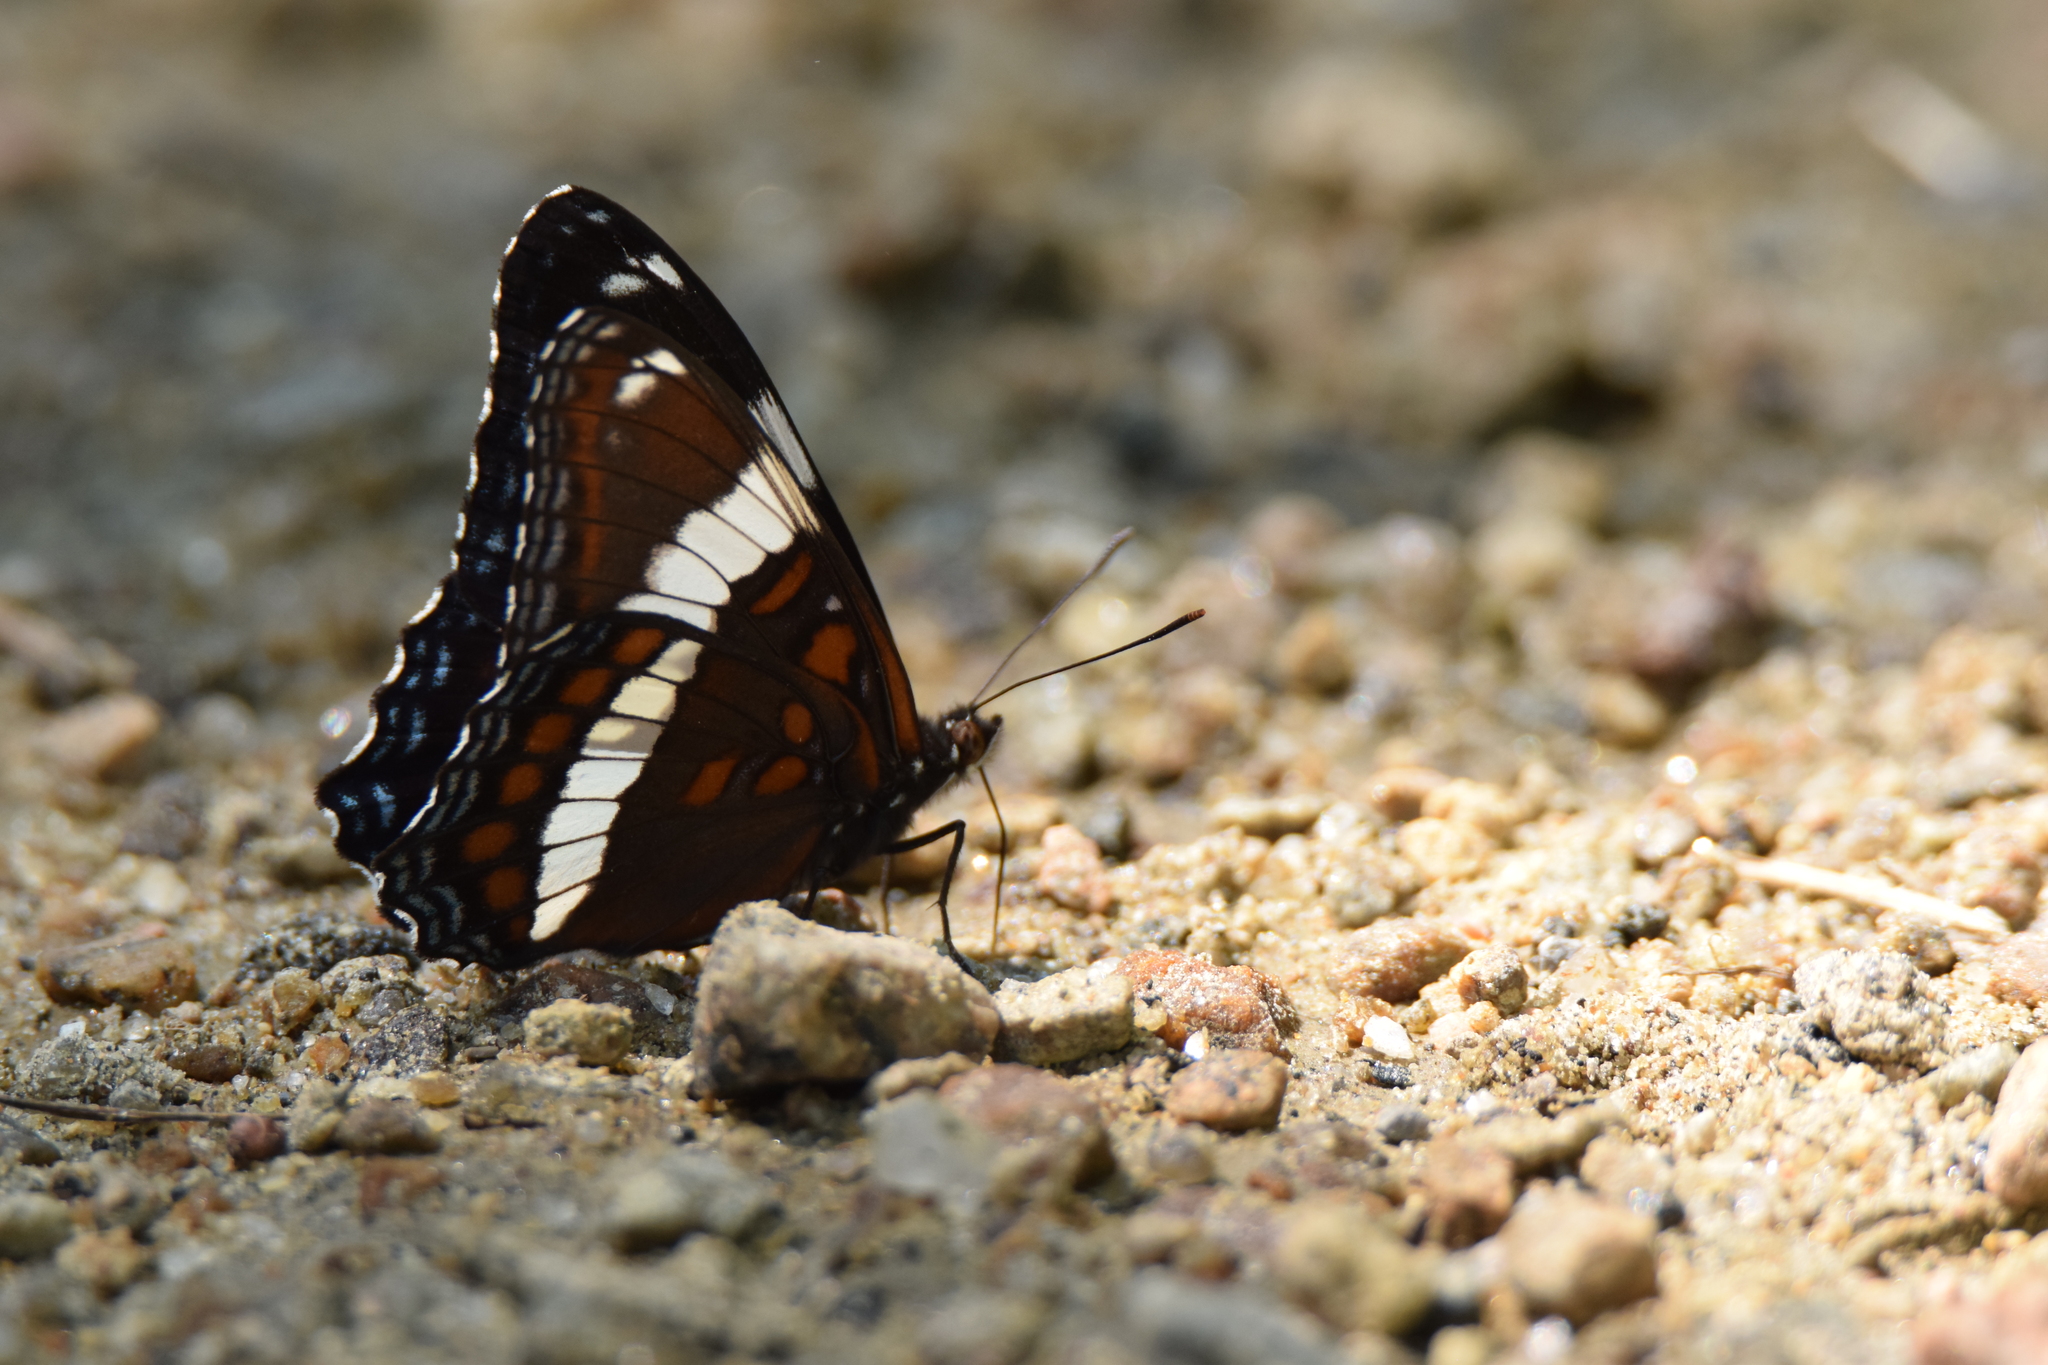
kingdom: Animalia
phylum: Arthropoda
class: Insecta
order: Lepidoptera
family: Nymphalidae
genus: Limenitis
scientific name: Limenitis arthemis
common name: Red-spotted admiral
